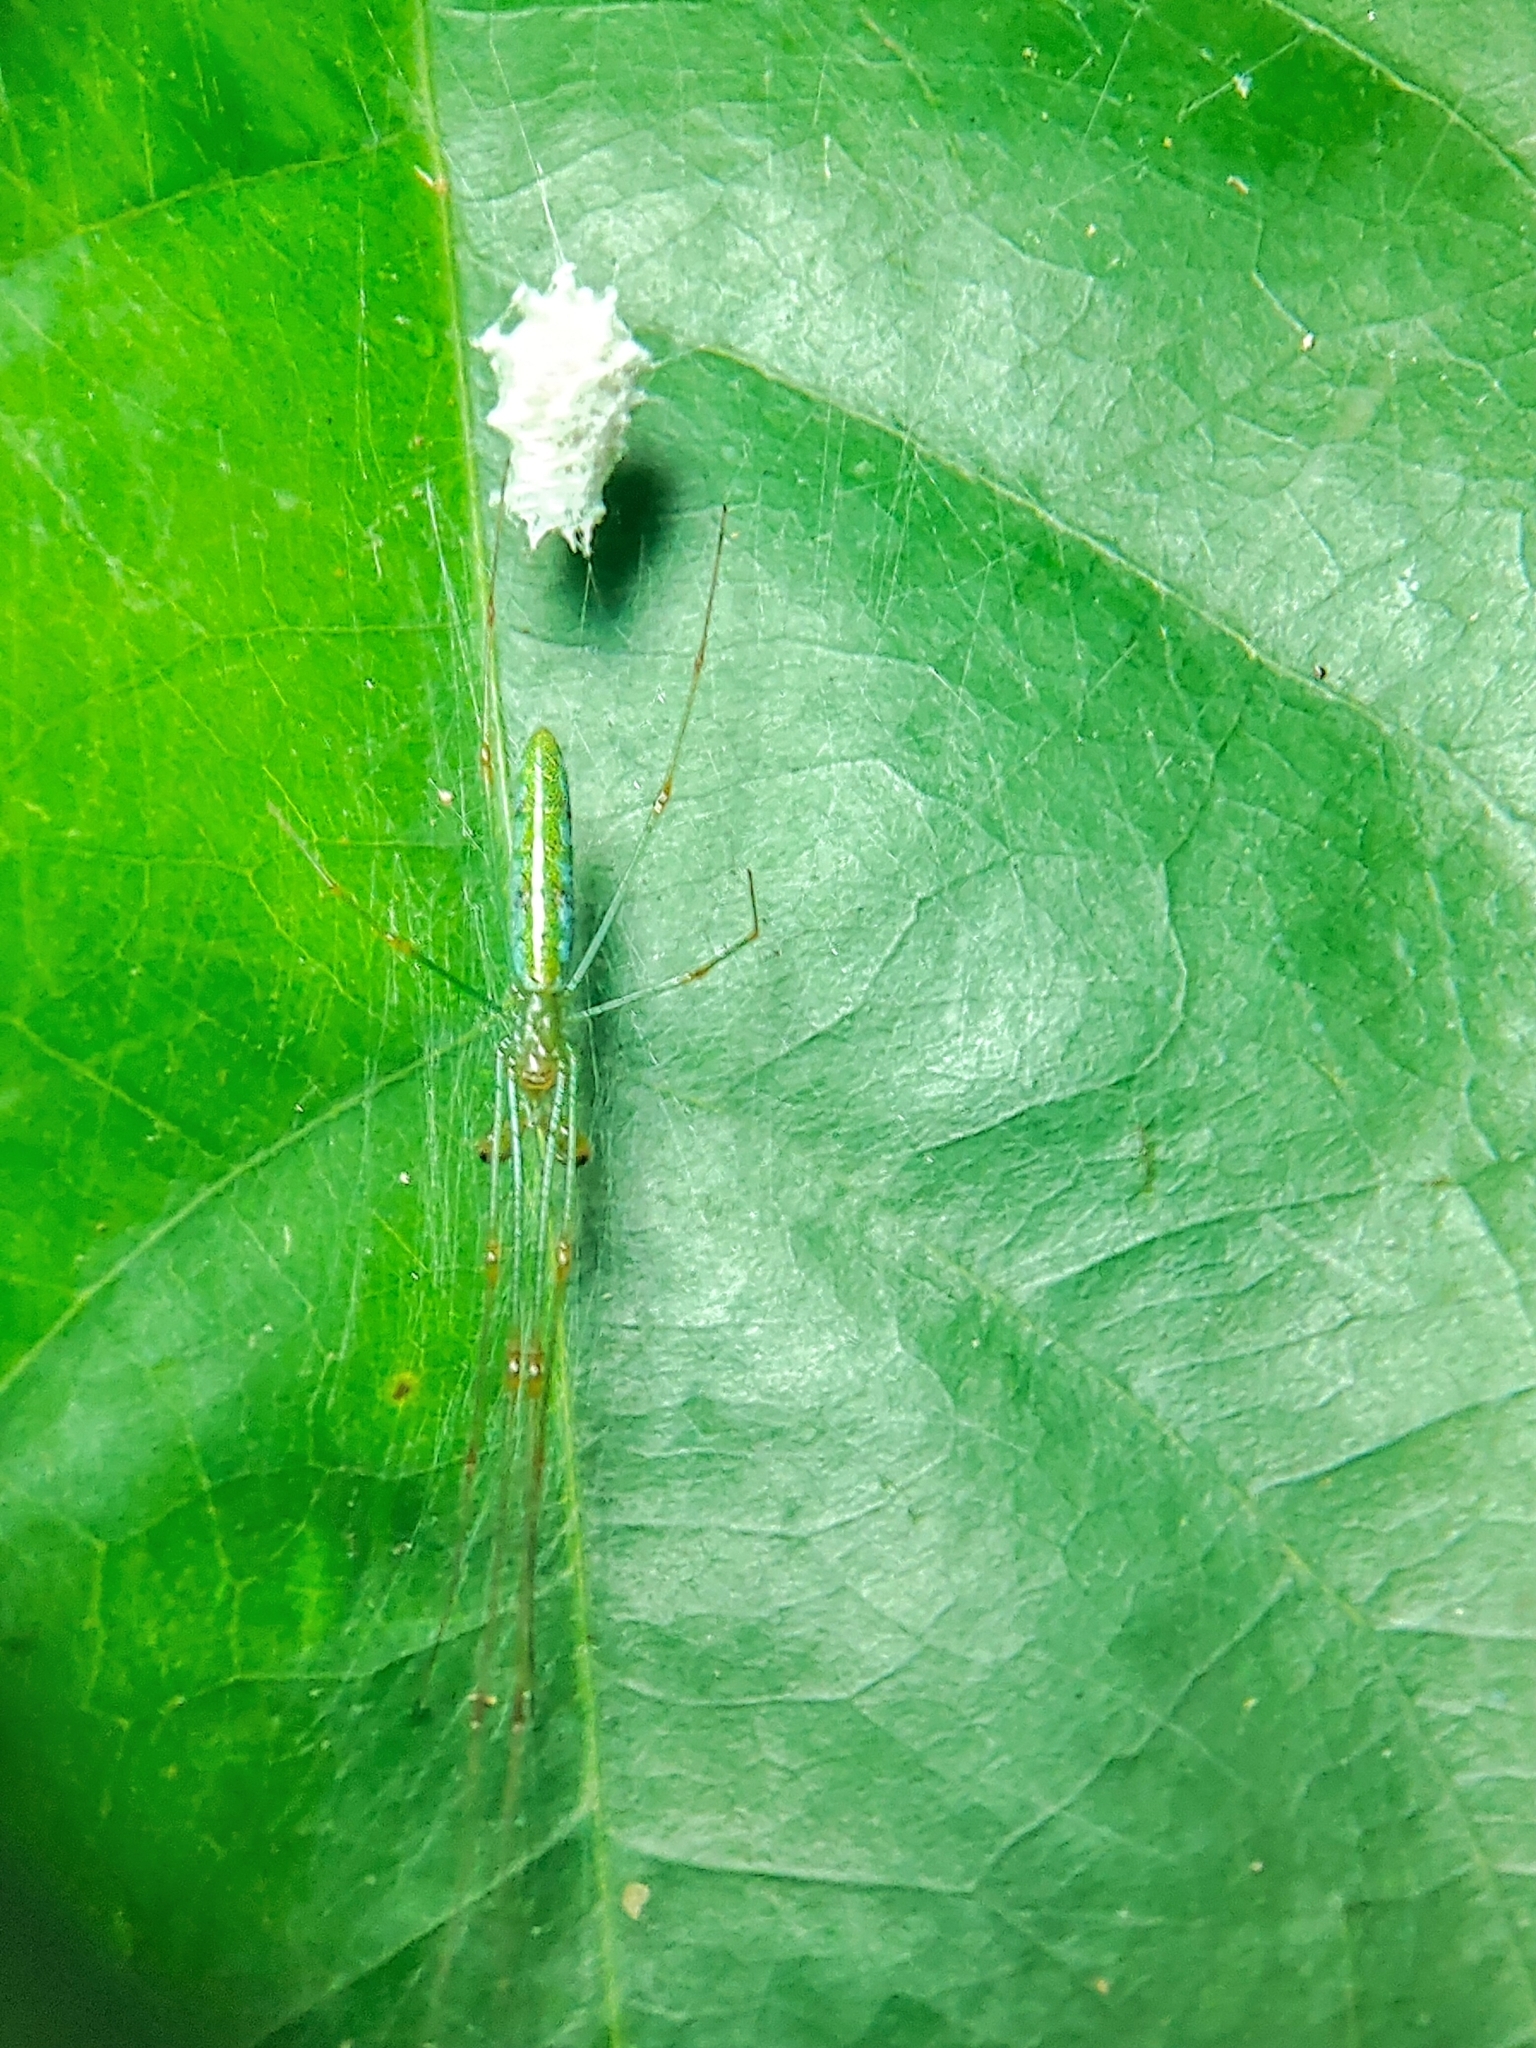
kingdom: Animalia
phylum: Arthropoda
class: Arachnida
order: Araneae
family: Tetragnathidae
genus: Tetragnatha
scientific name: Tetragnatha hasselti
